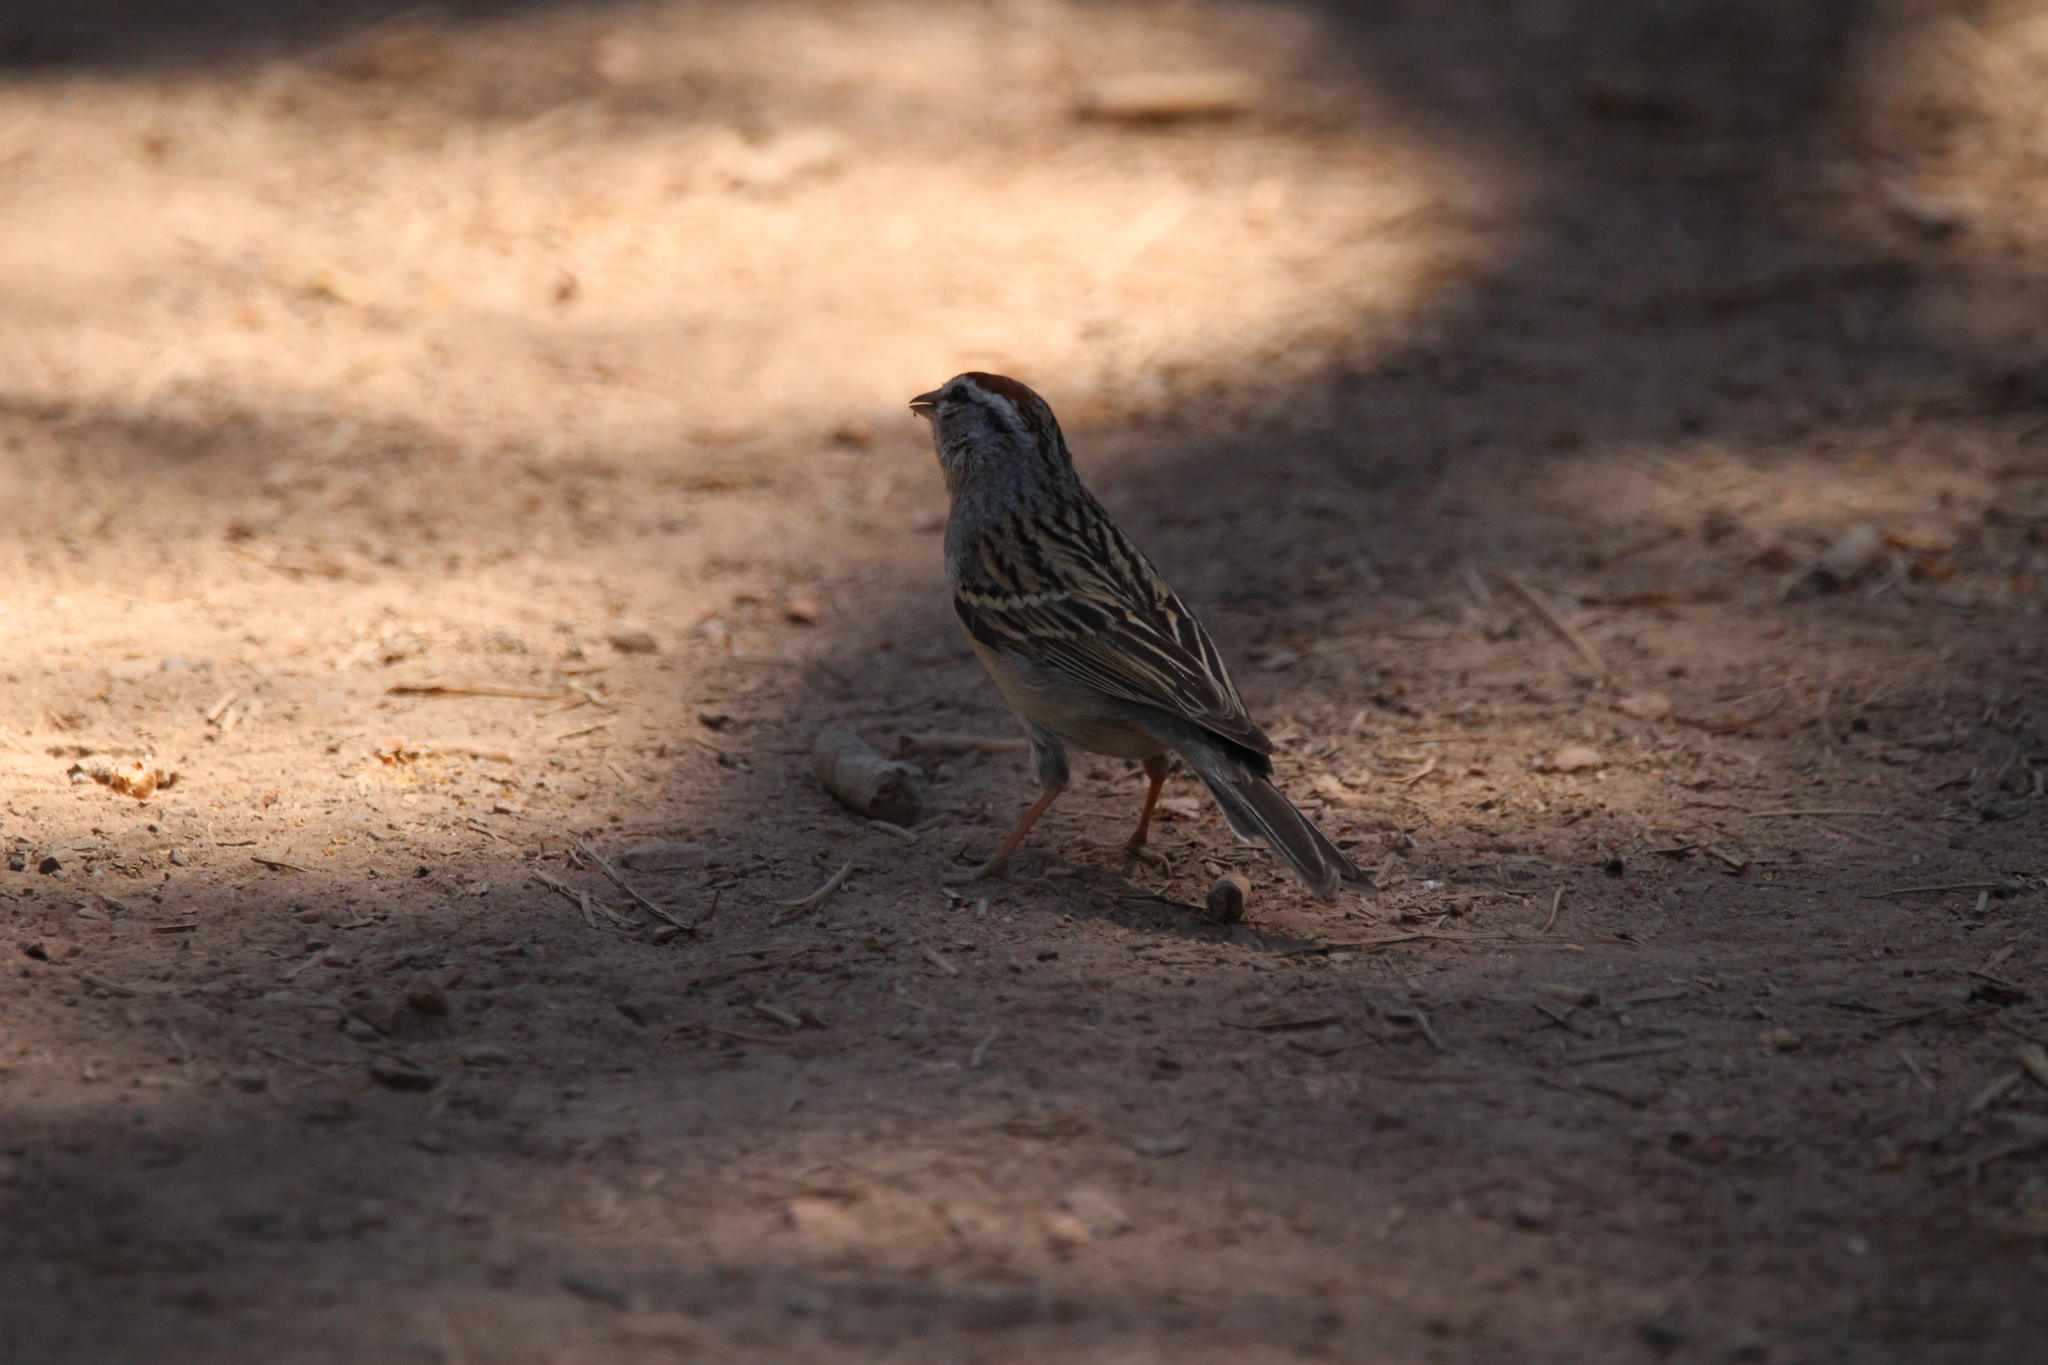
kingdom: Animalia
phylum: Chordata
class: Aves
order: Passeriformes
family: Passerellidae
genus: Spizella
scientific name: Spizella passerina
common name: Chipping sparrow
